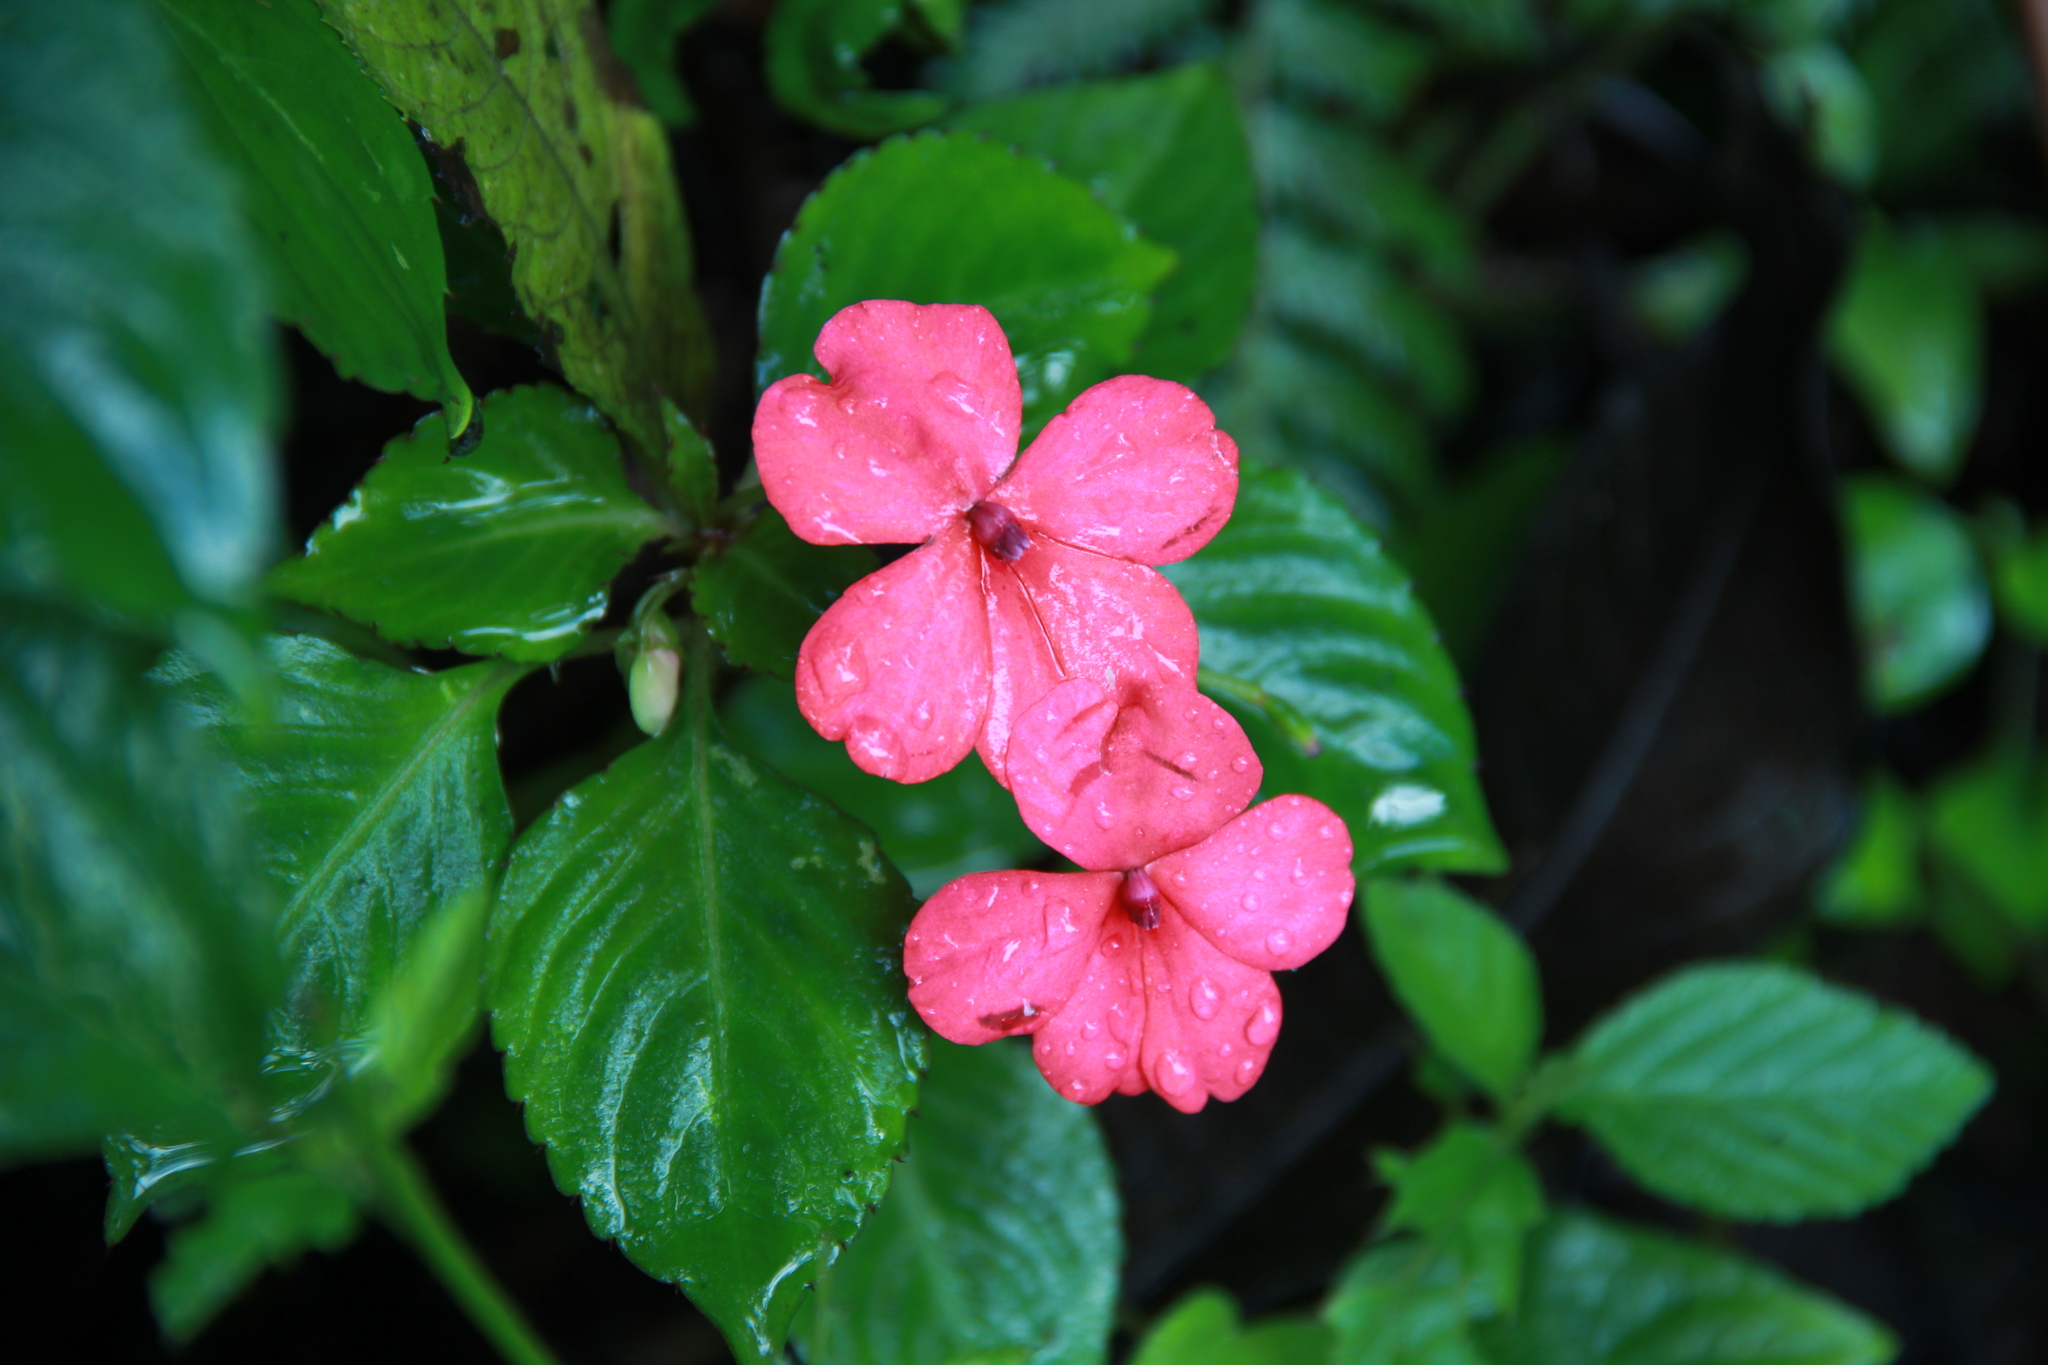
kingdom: Plantae
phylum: Tracheophyta
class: Magnoliopsida
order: Ericales
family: Balsaminaceae
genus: Impatiens
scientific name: Impatiens walleriana
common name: Buzzy lizzy
